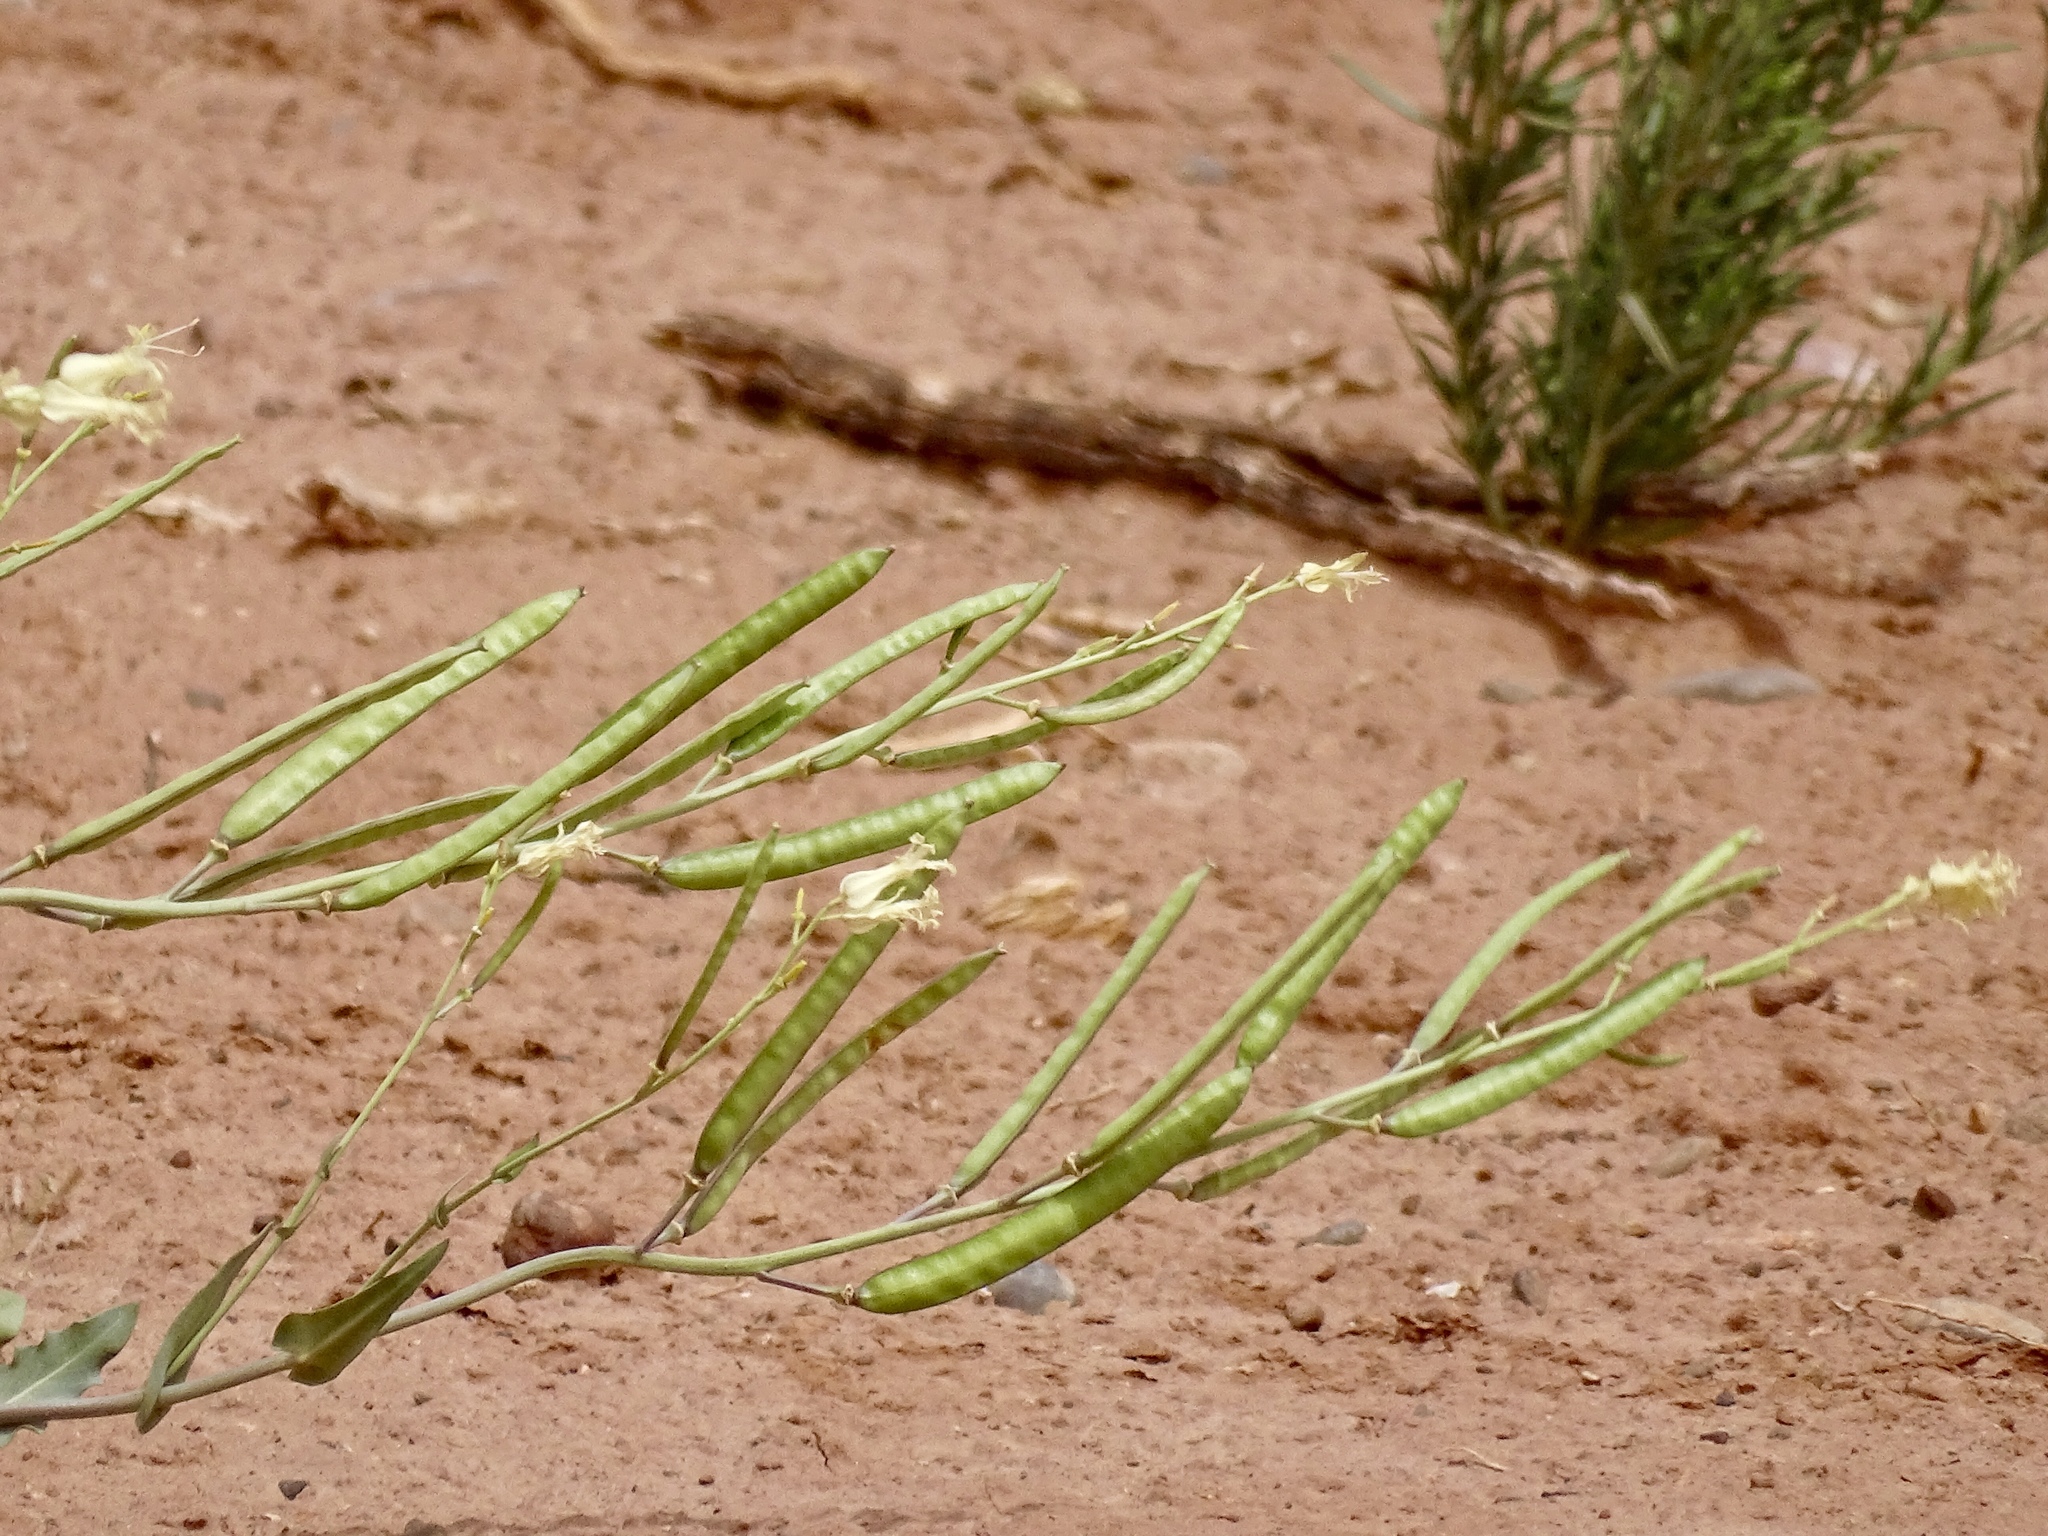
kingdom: Plantae
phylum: Tracheophyta
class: Magnoliopsida
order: Brassicales
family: Brassicaceae
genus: Streptanthus
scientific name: Streptanthus carinatus
